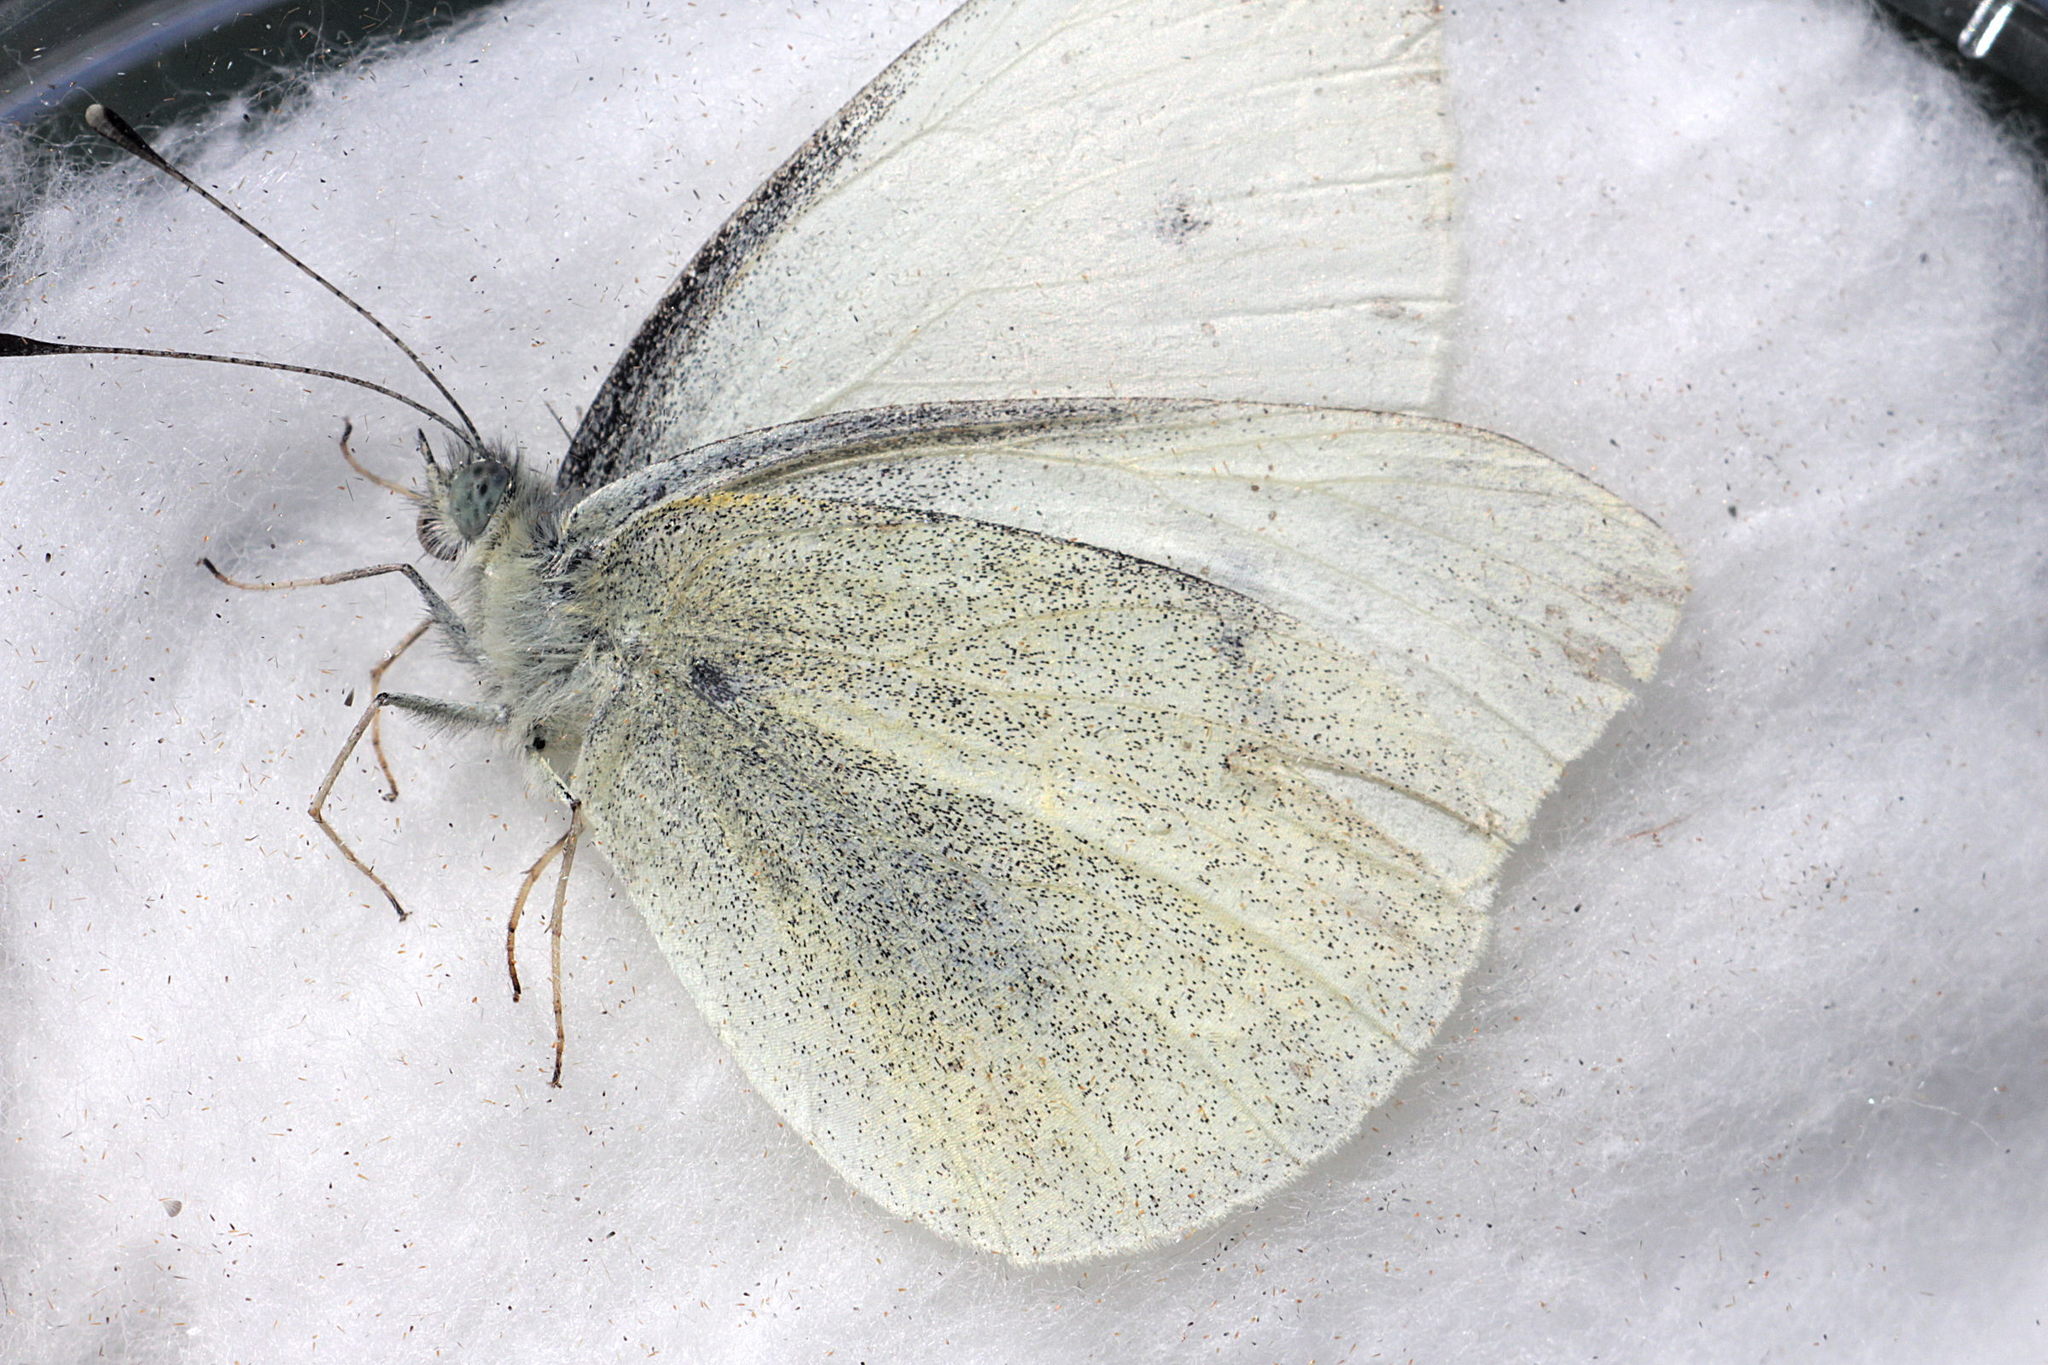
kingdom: Animalia
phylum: Arthropoda
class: Insecta
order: Lepidoptera
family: Pieridae
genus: Pieris
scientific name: Pieris rapae
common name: Small white
